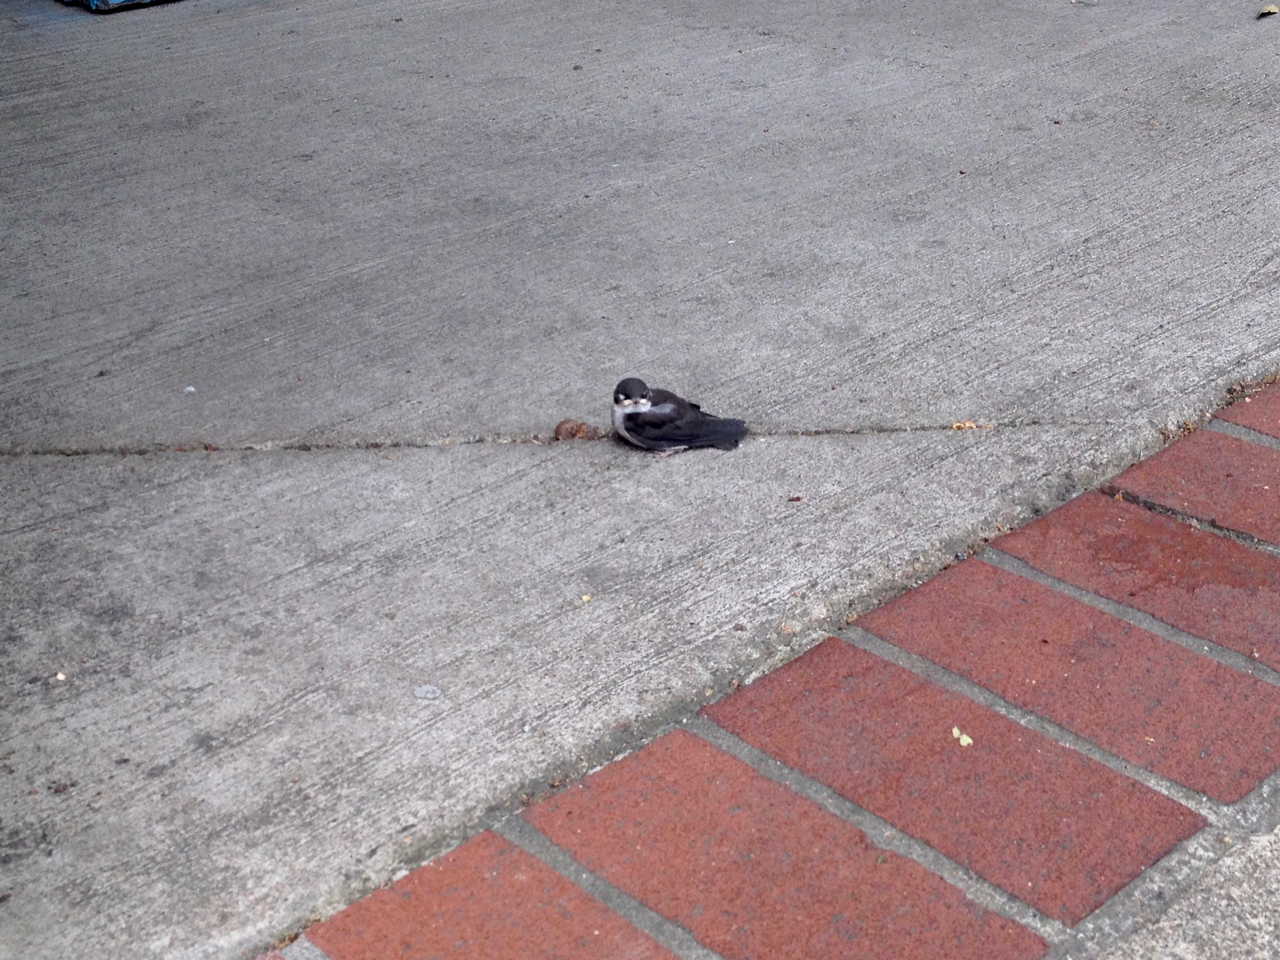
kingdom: Animalia
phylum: Chordata
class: Aves
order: Passeriformes
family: Hirundinidae
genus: Tachycineta
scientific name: Tachycineta bicolor
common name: Tree swallow
